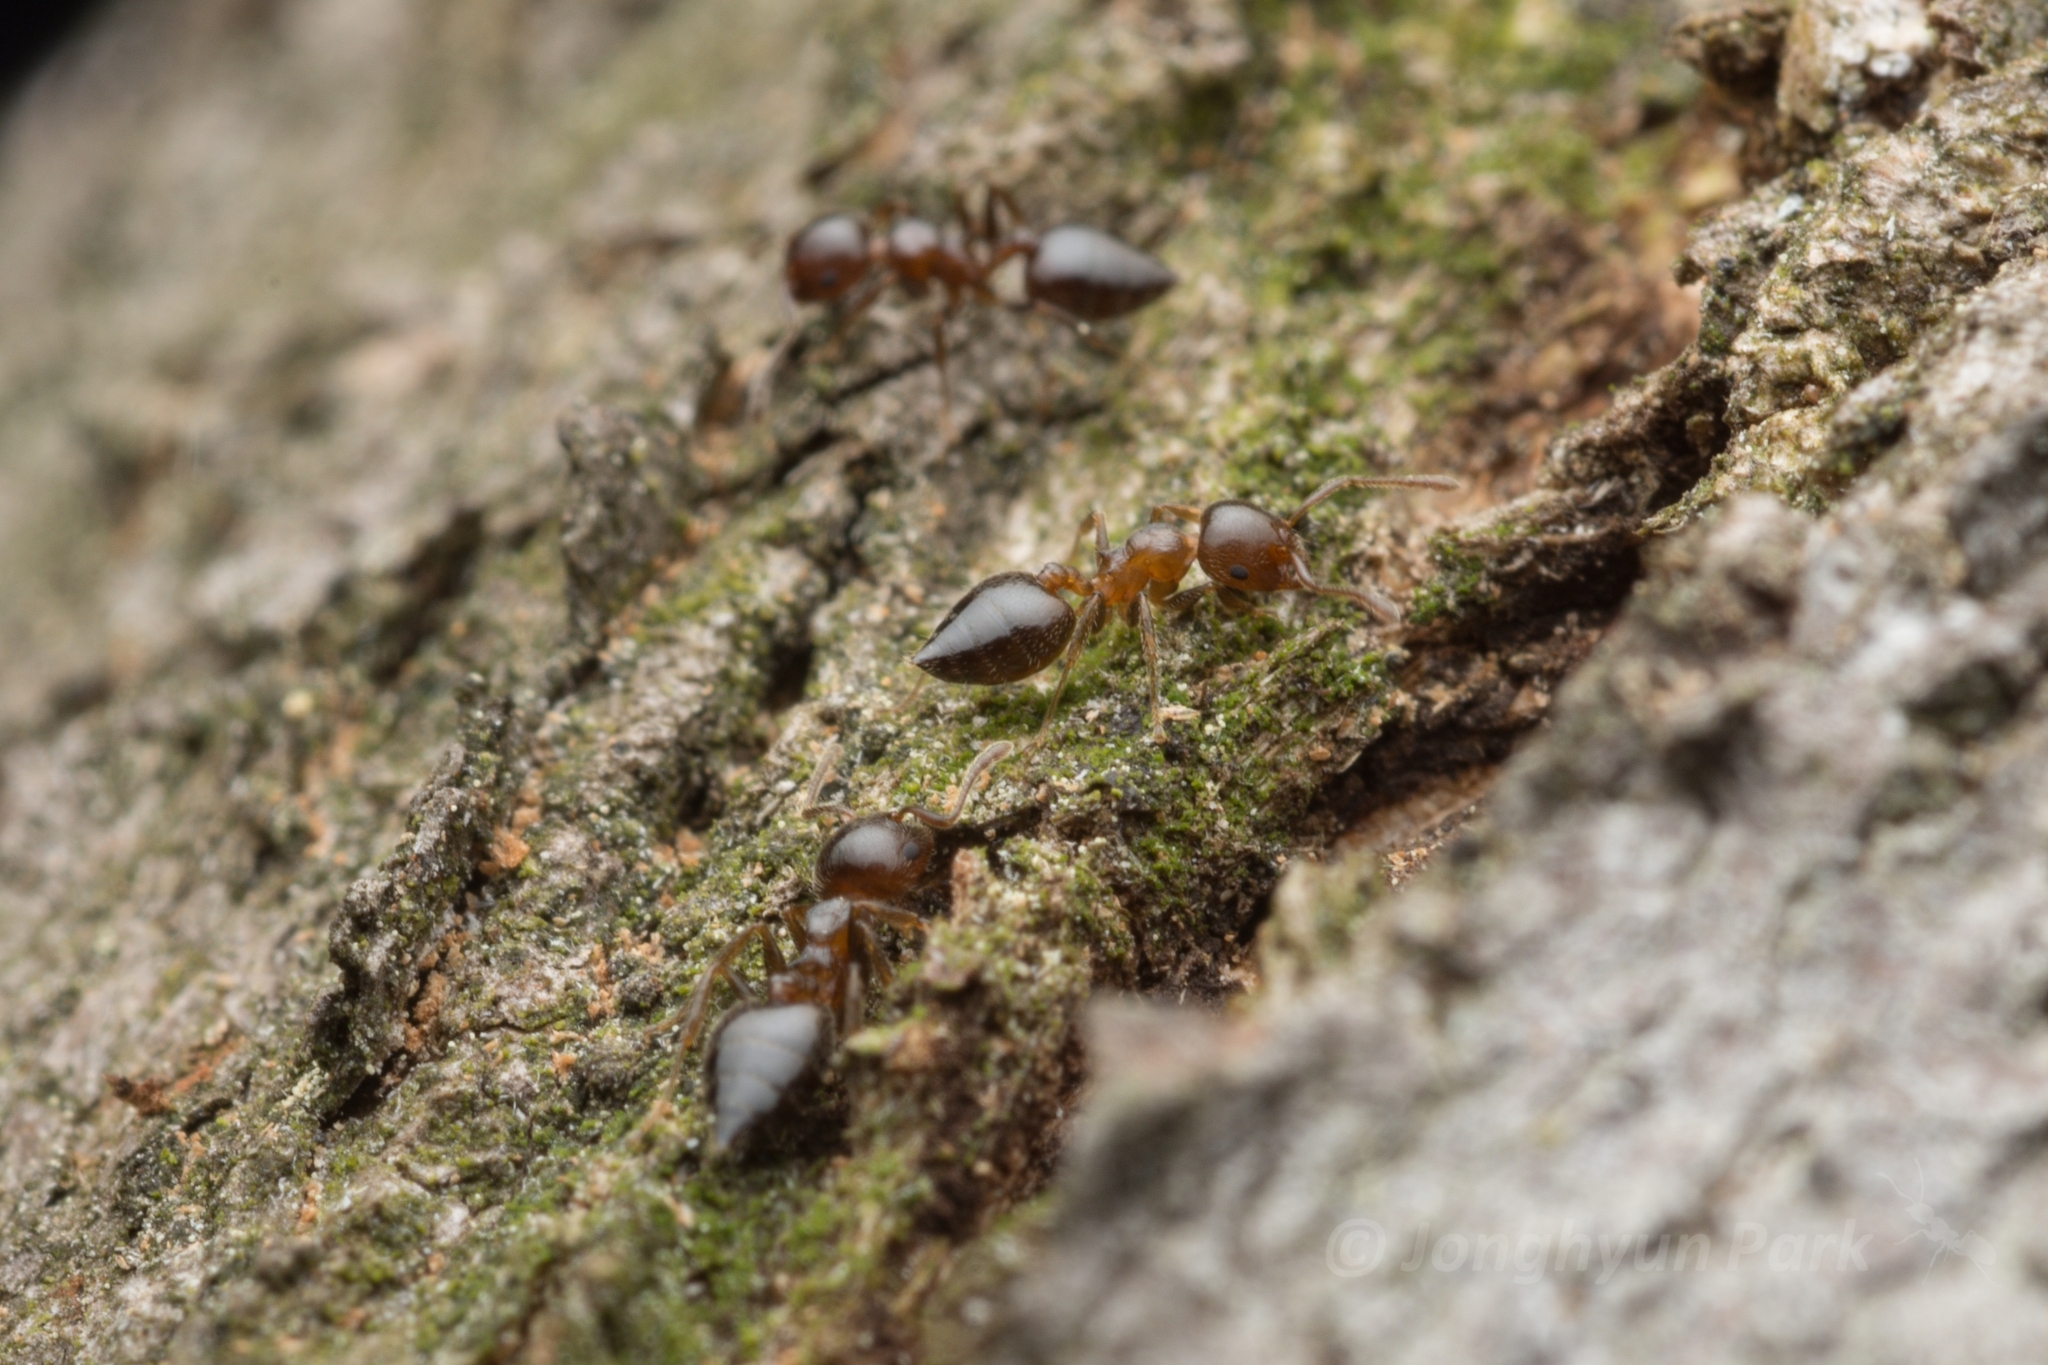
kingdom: Animalia
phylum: Arthropoda
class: Insecta
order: Hymenoptera
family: Formicidae
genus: Crematogaster
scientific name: Crematogaster matsumurai
